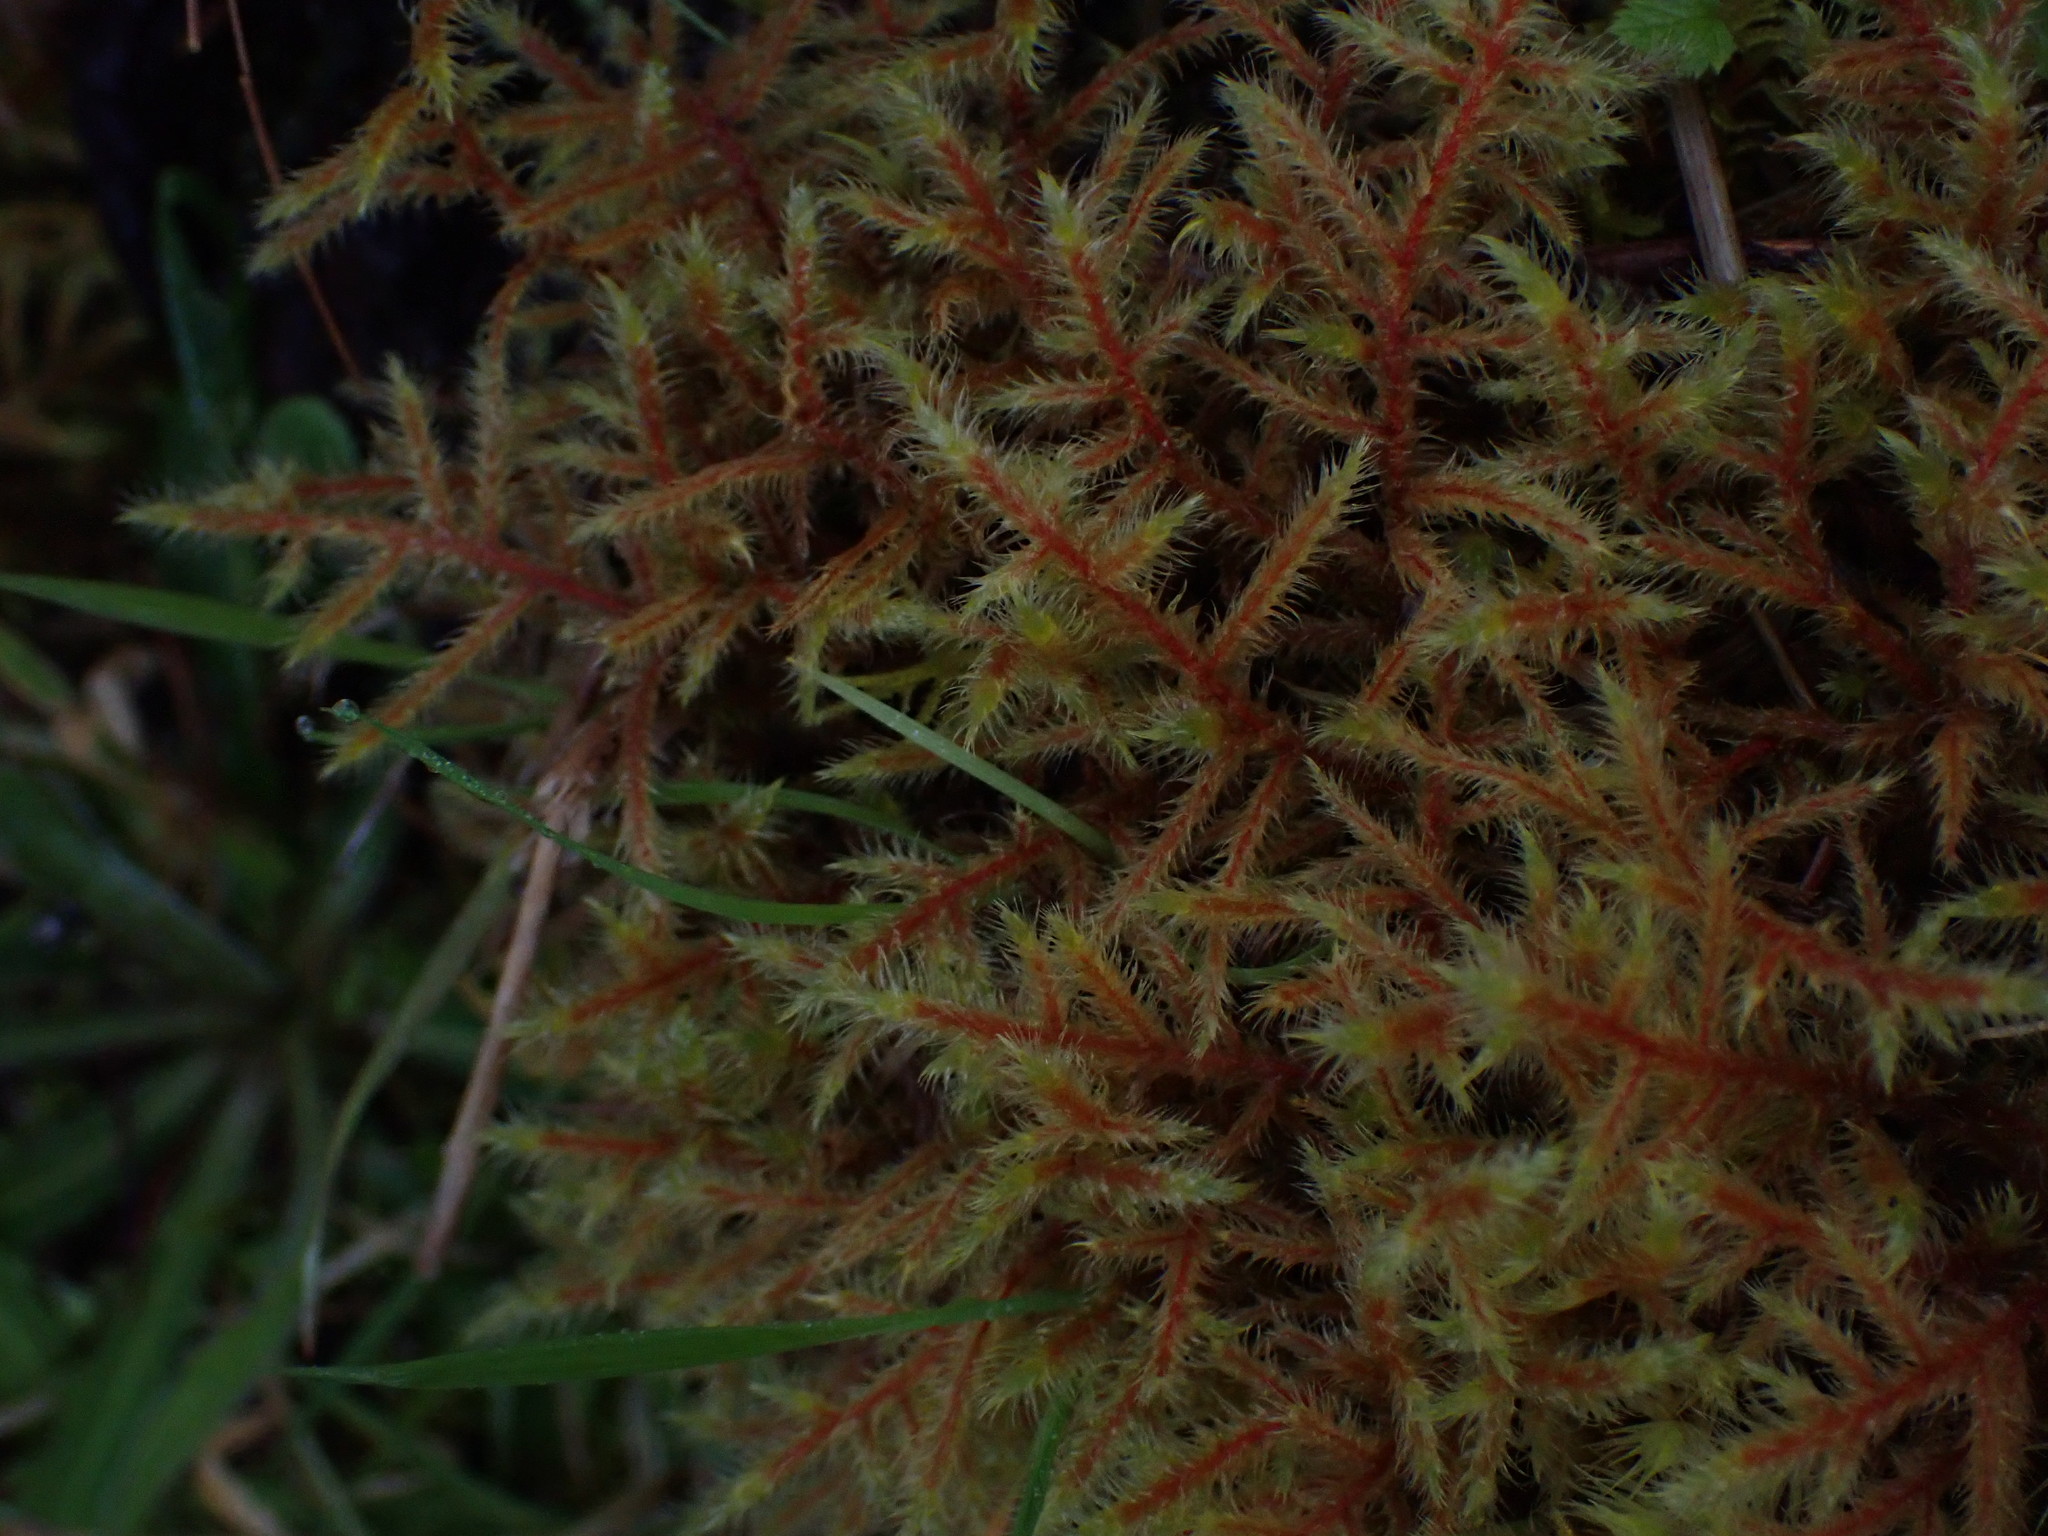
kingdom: Plantae
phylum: Bryophyta
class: Bryopsida
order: Hypnales
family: Hylocomiaceae
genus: Rhytidiadelphus
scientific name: Rhytidiadelphus loreus
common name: Lanky moss
